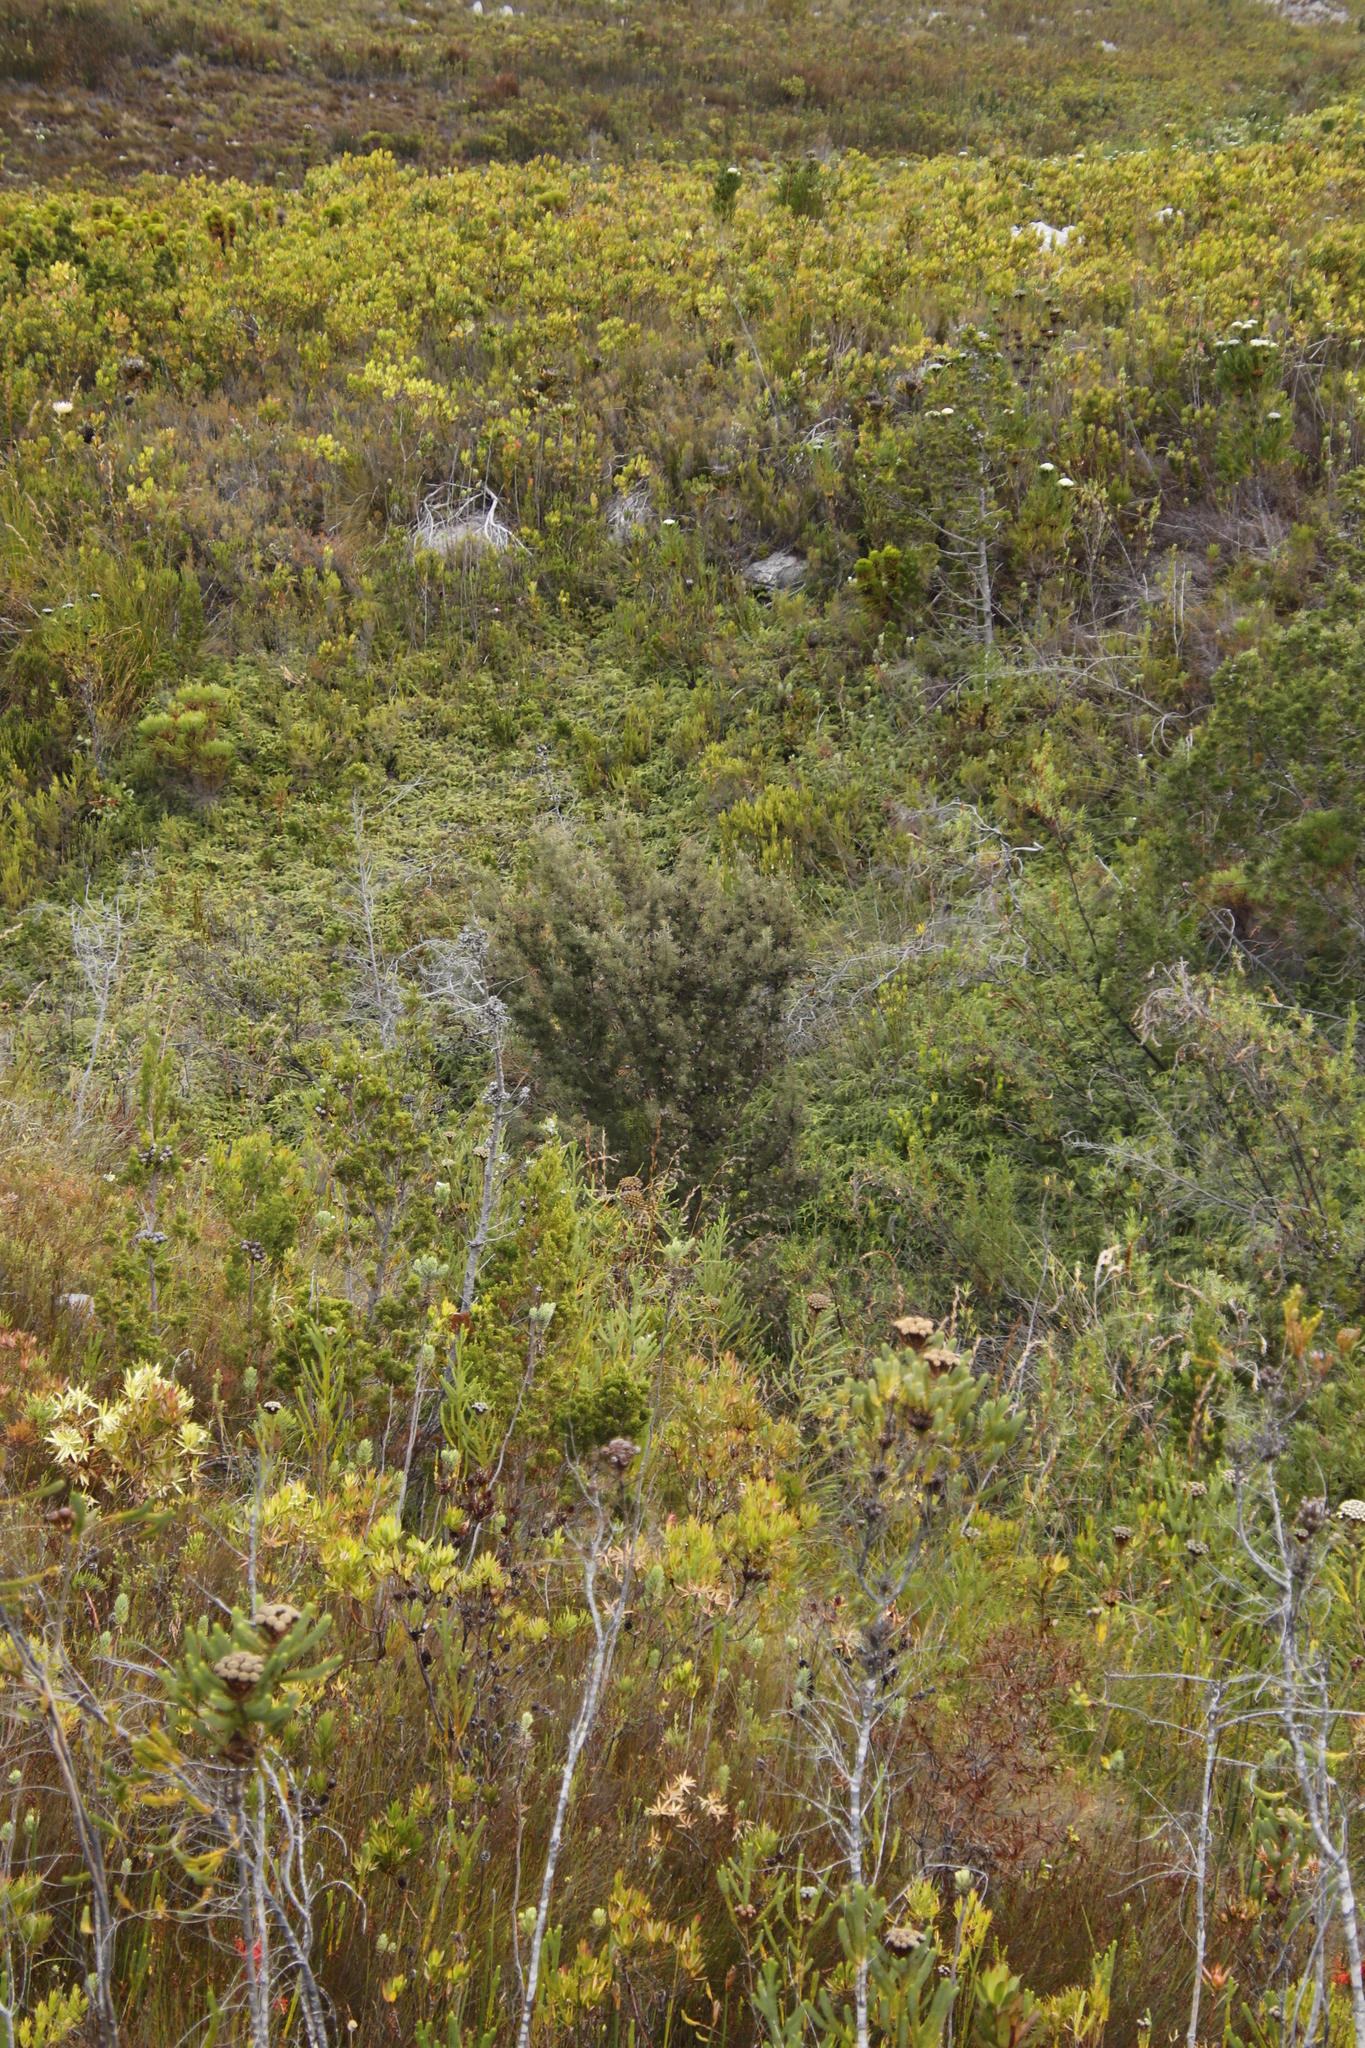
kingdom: Plantae
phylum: Tracheophyta
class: Magnoliopsida
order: Proteales
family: Proteaceae
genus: Hakea
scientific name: Hakea sericea
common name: Needle bush
